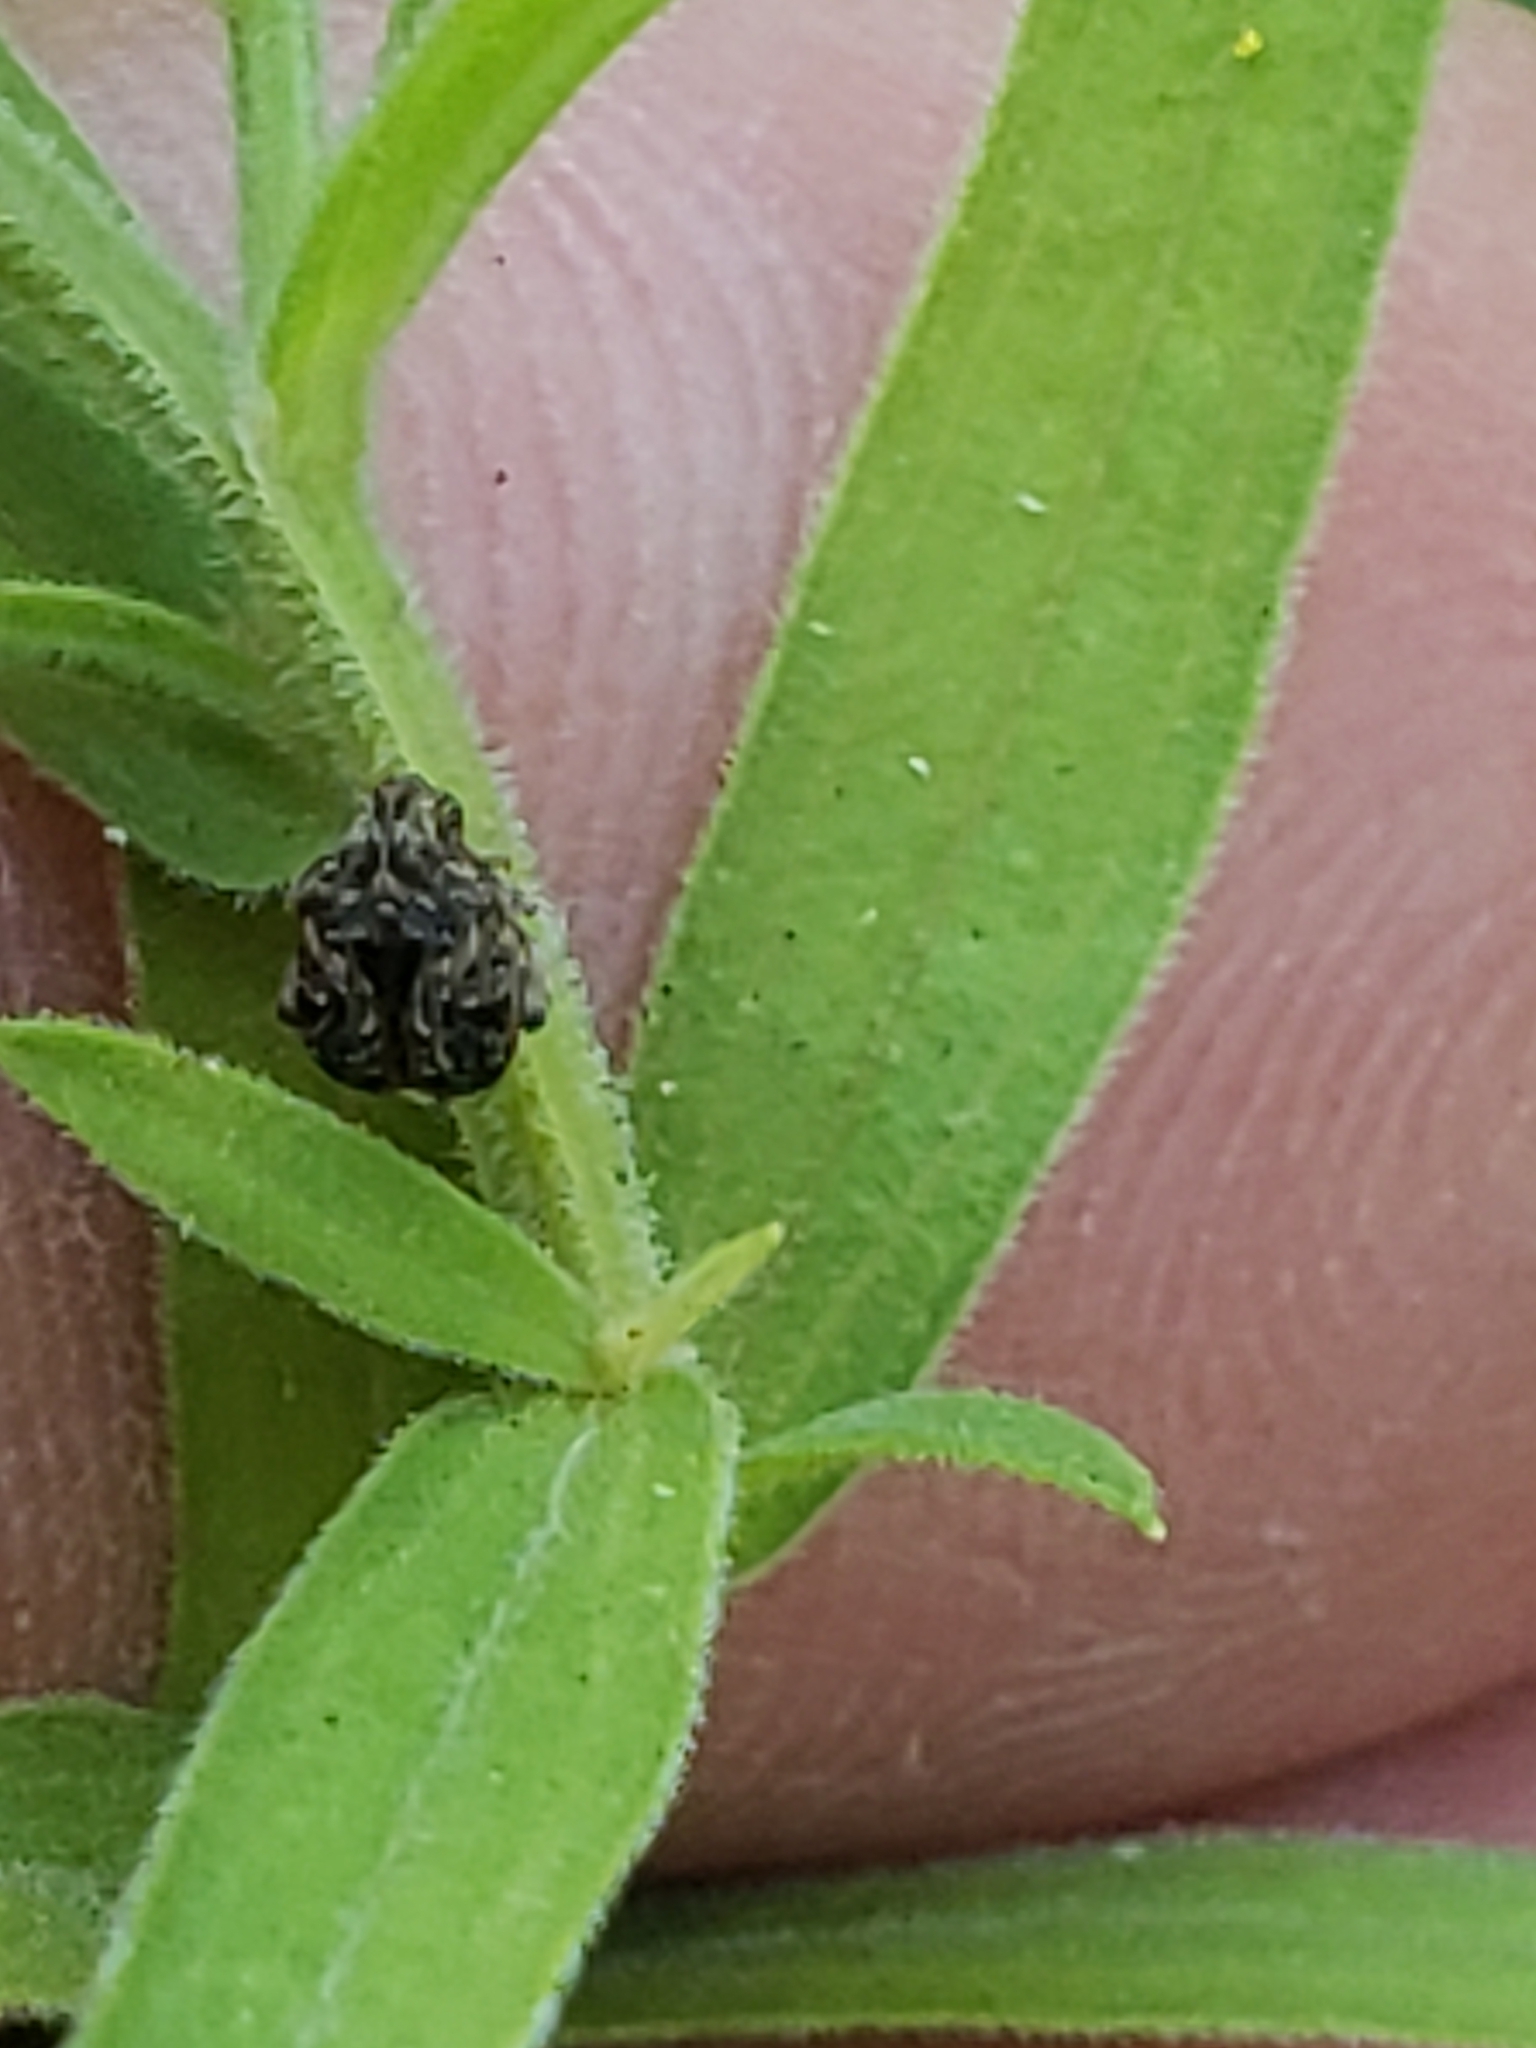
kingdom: Animalia
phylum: Arthropoda
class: Insecta
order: Coleoptera
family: Chrysomelidae
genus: Gibbobruchus
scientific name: Gibbobruchus mimus
